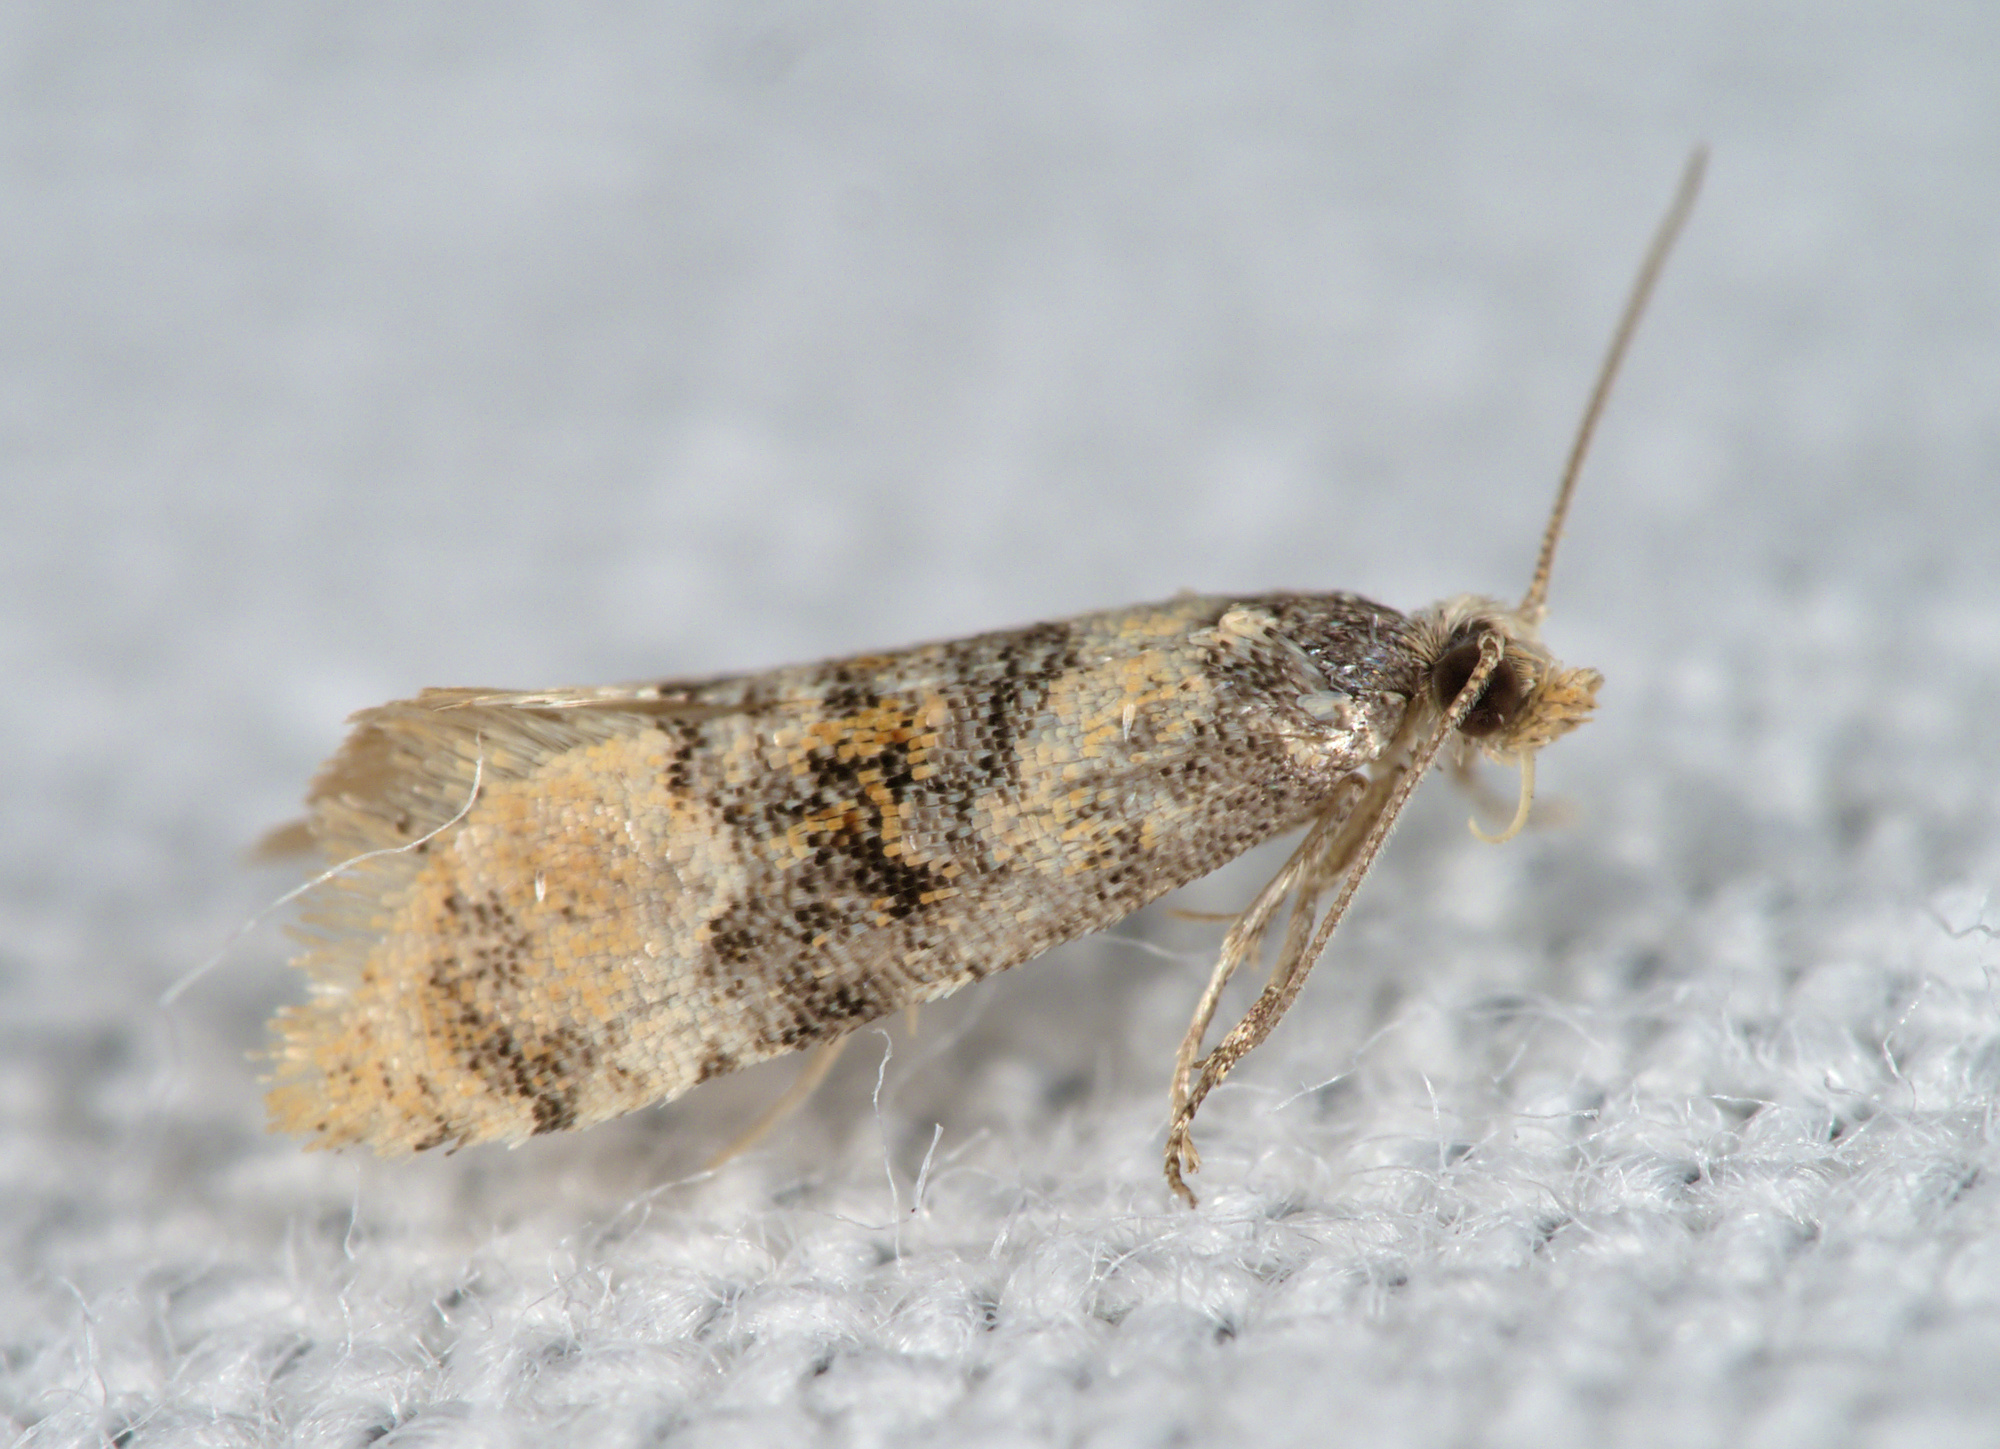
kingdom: Animalia
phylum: Arthropoda
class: Insecta
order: Lepidoptera
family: Tortricidae
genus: Thyraylia
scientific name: Thyraylia nana
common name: Birch conch
